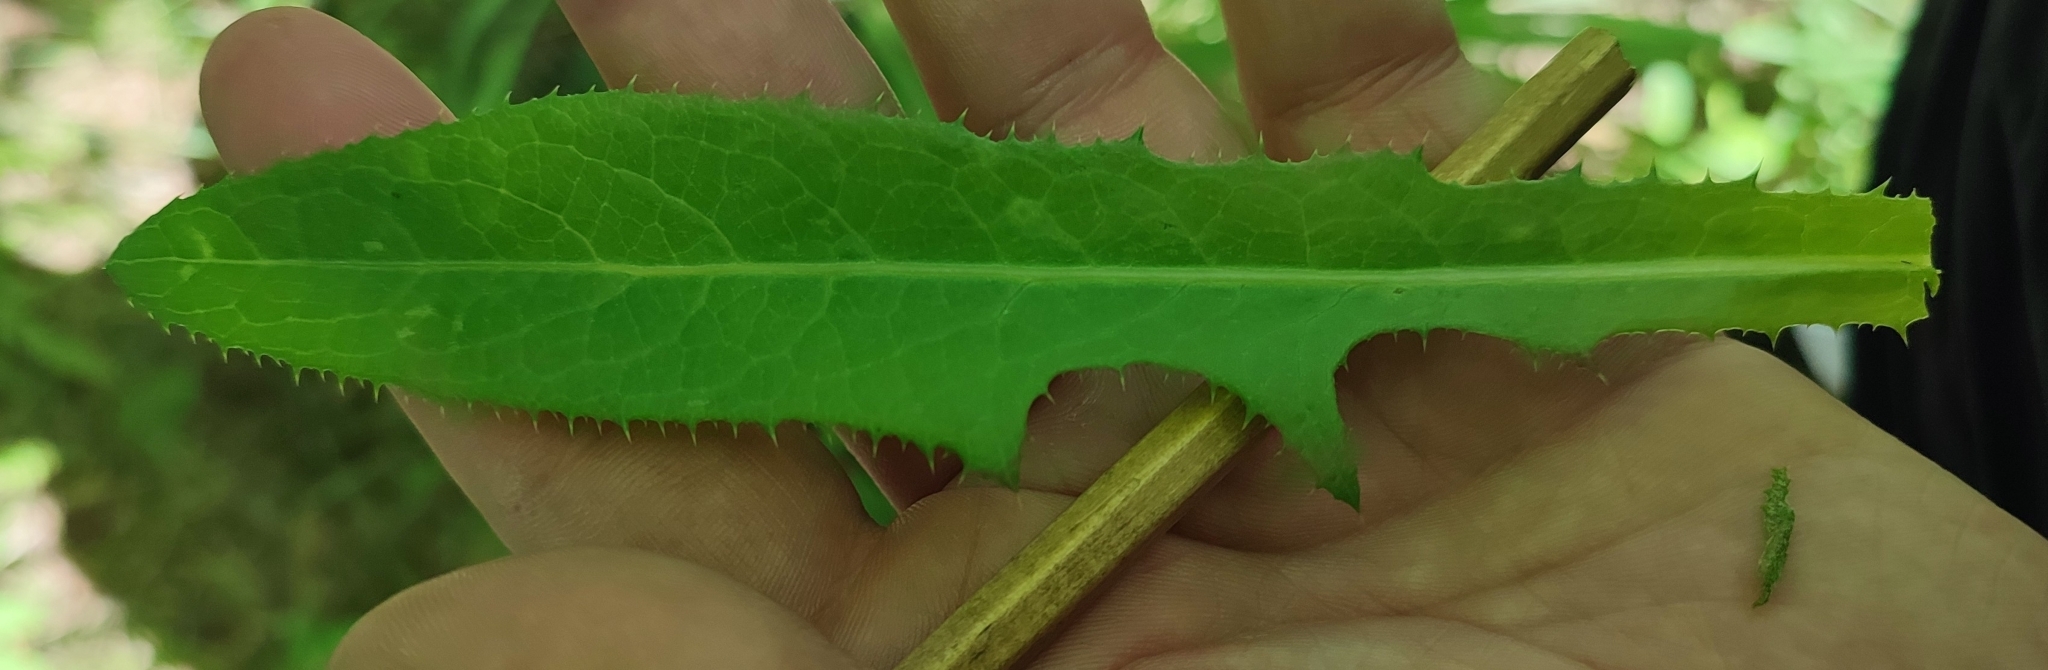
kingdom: Plantae
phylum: Tracheophyta
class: Magnoliopsida
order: Asterales
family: Asteraceae
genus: Sonchus
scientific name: Sonchus arvensis
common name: Perennial sow-thistle
